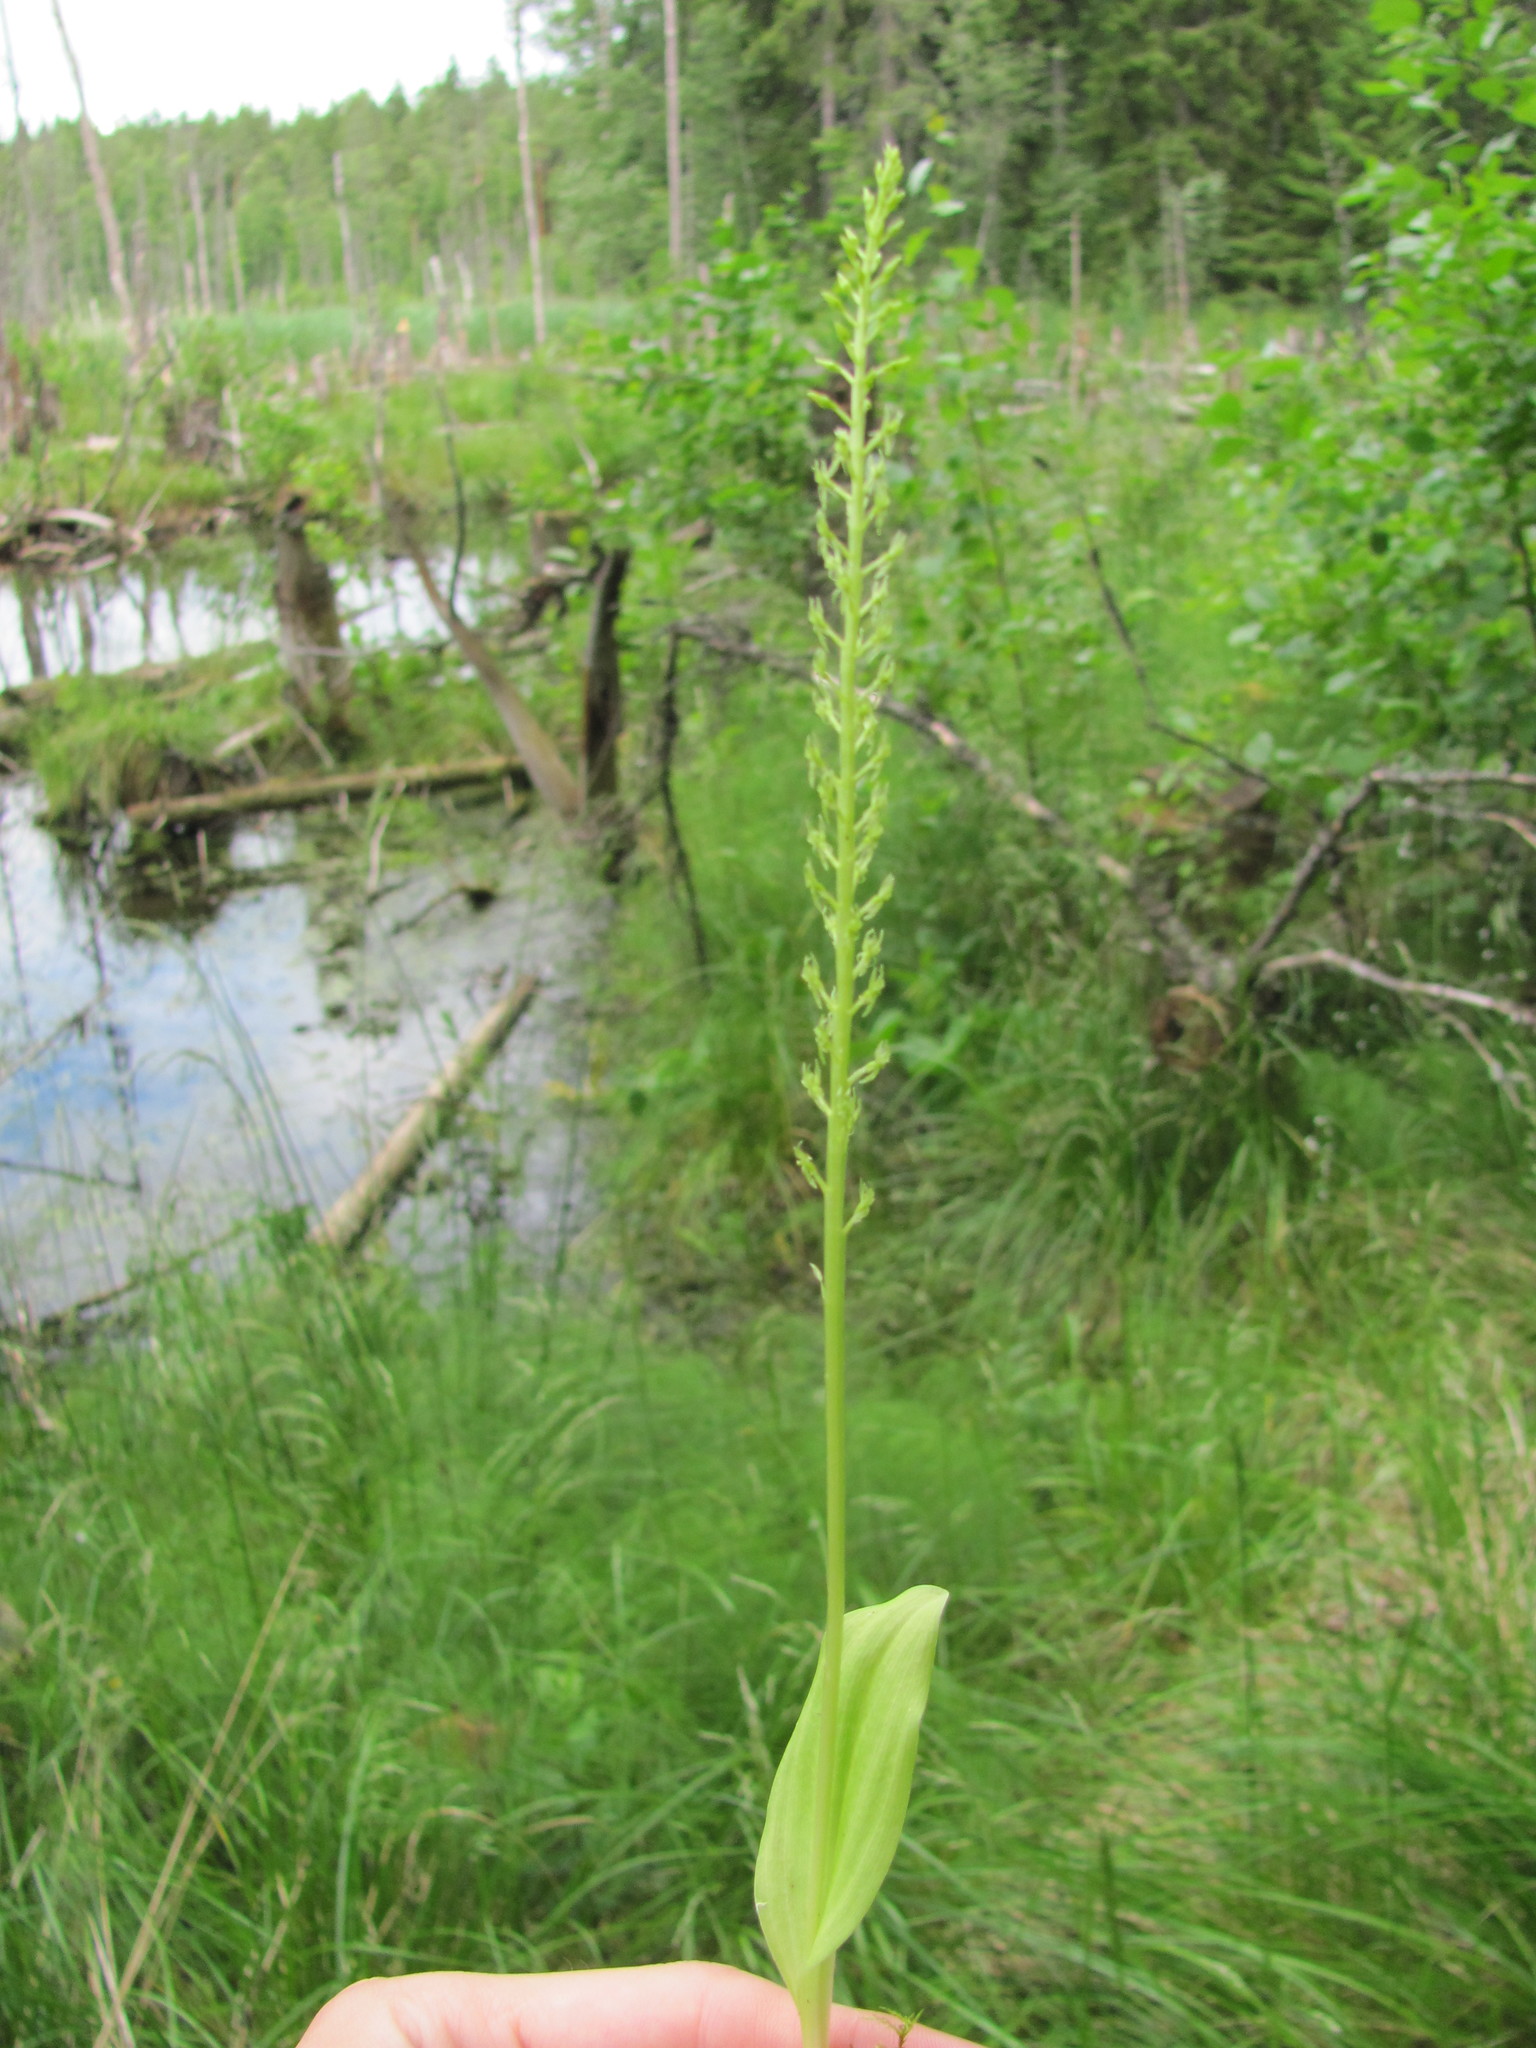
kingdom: Plantae
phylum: Tracheophyta
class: Liliopsida
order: Asparagales
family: Orchidaceae
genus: Malaxis
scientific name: Malaxis monophyllos
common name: White adder's-mouth
